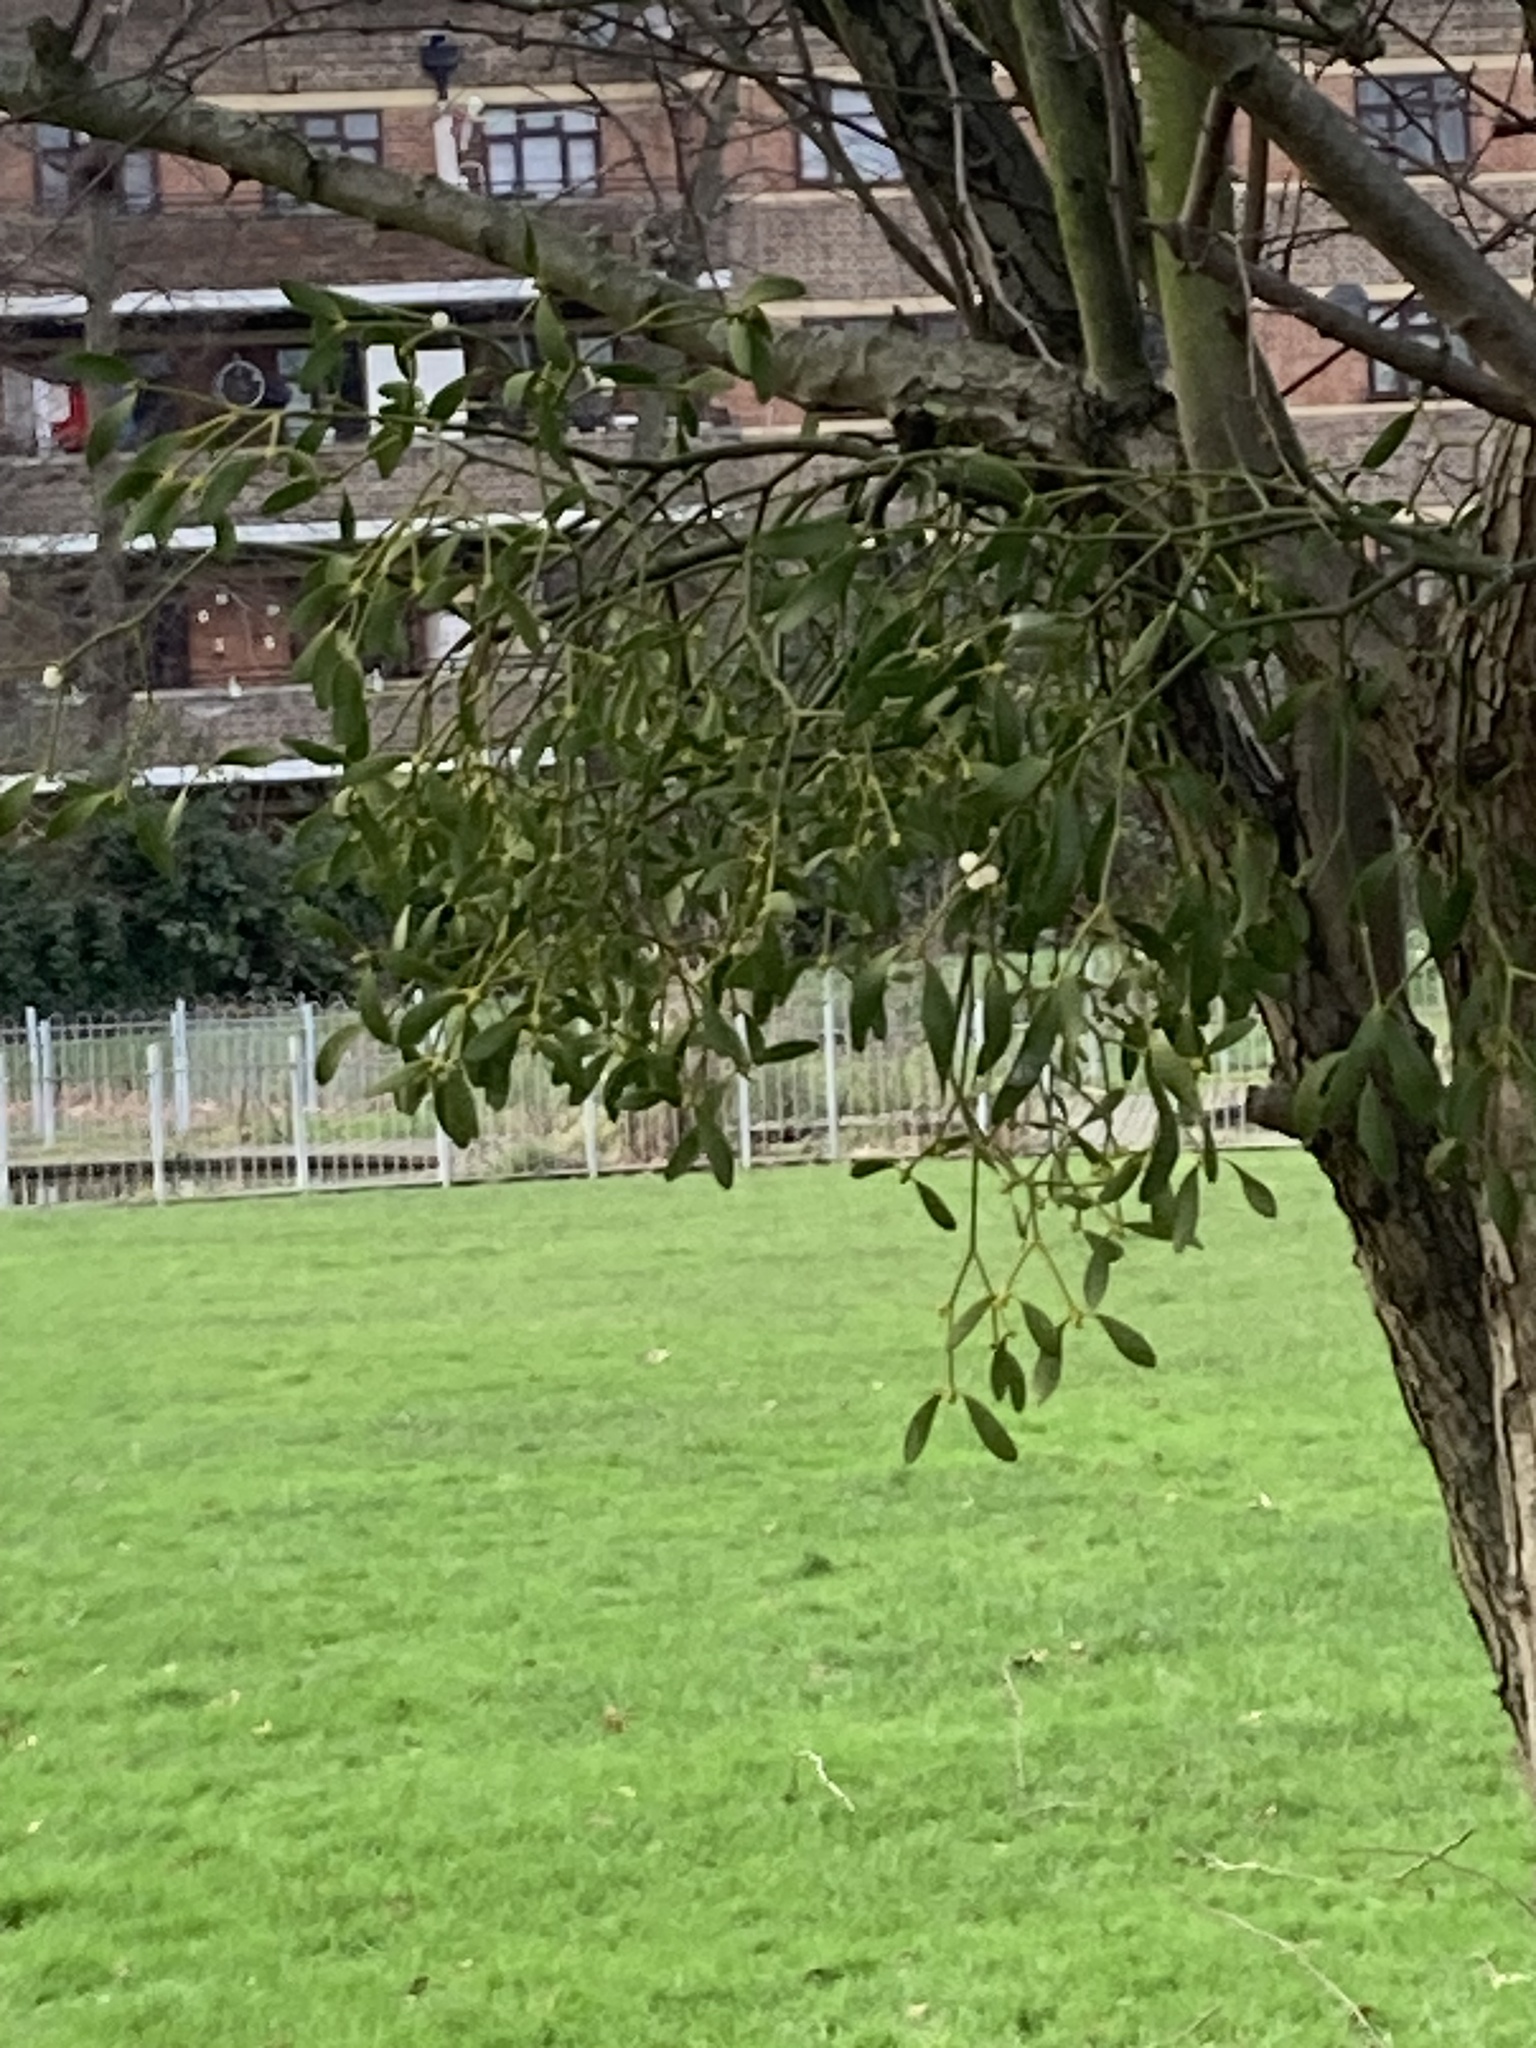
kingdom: Plantae
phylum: Tracheophyta
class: Magnoliopsida
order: Santalales
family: Viscaceae
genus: Viscum
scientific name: Viscum album
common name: Mistletoe
